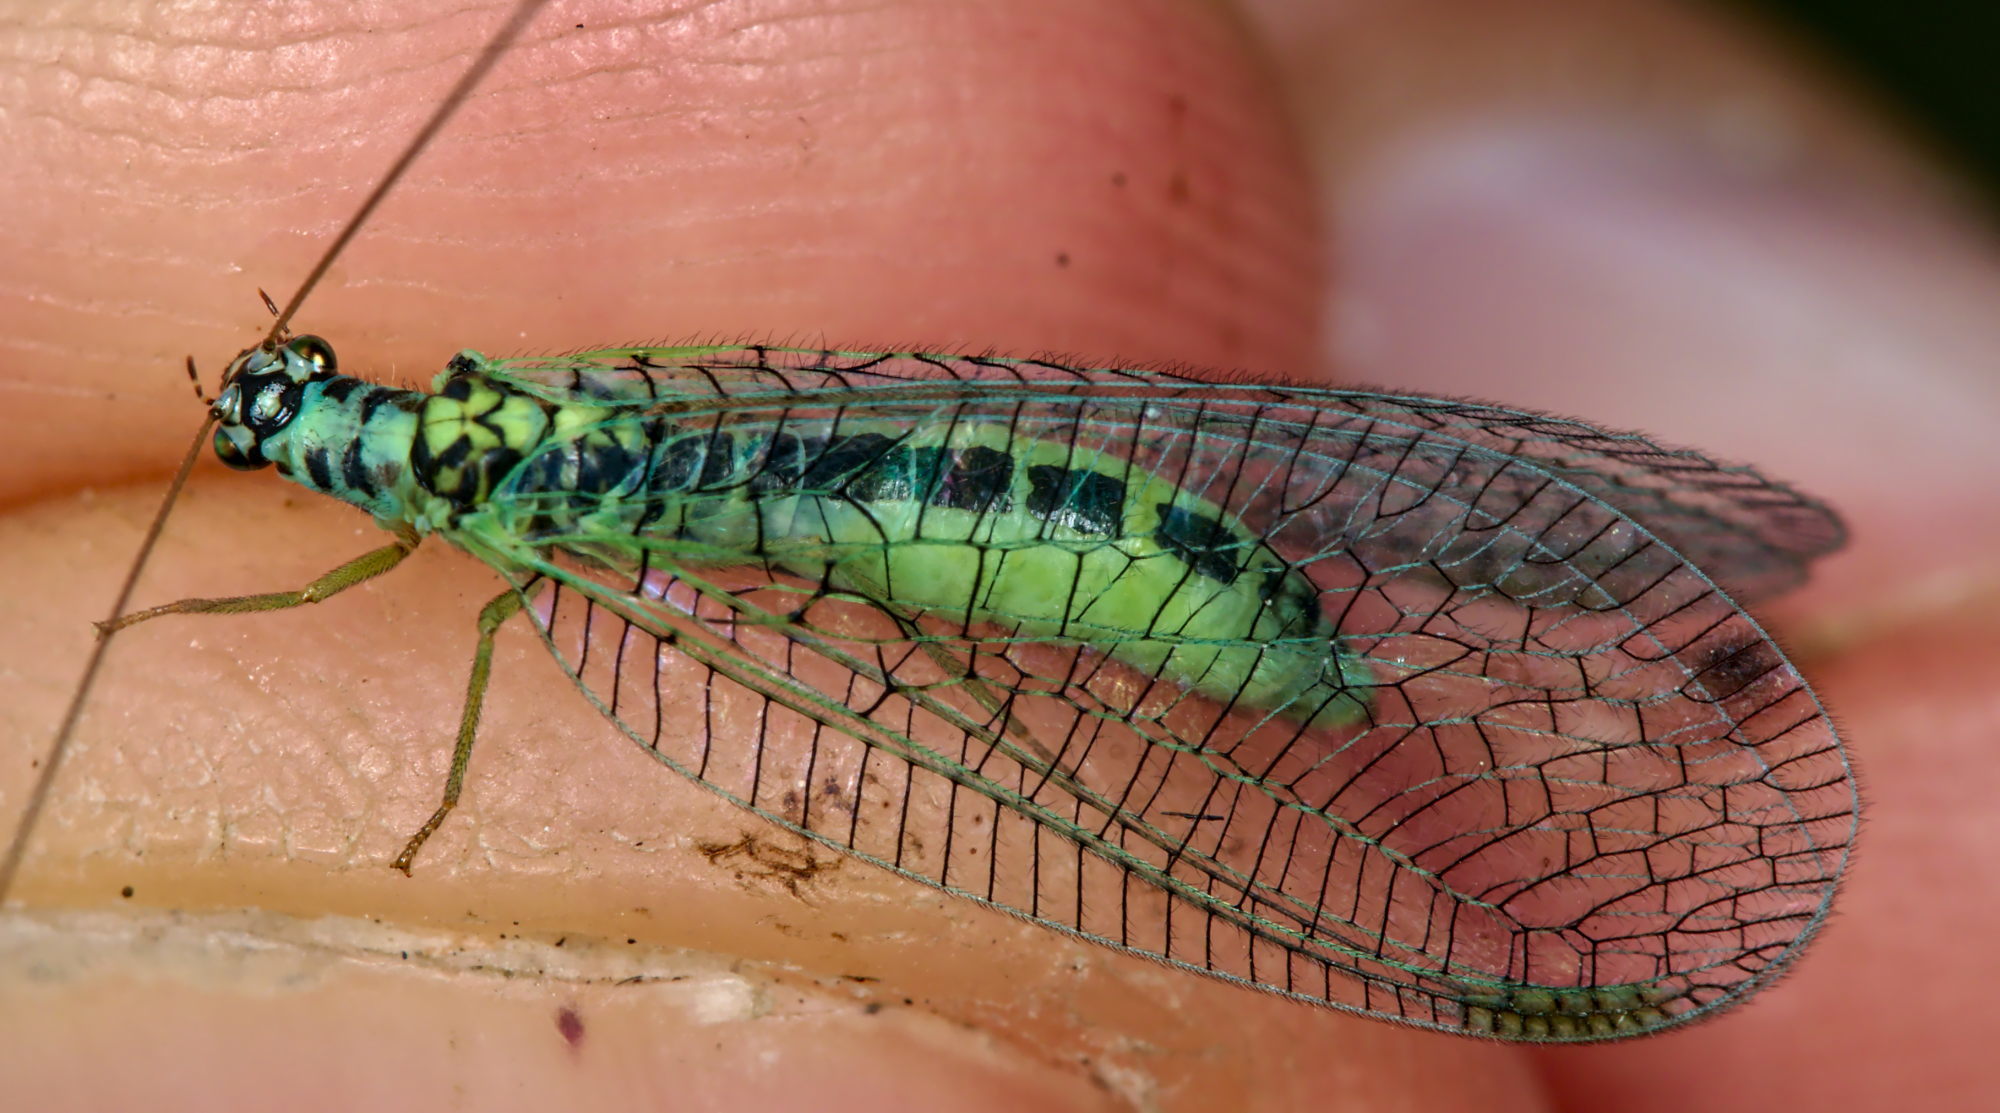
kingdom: Animalia
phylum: Arthropoda
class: Insecta
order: Neuroptera
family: Chrysopidae
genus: Chrysopa
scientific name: Chrysopa perla
